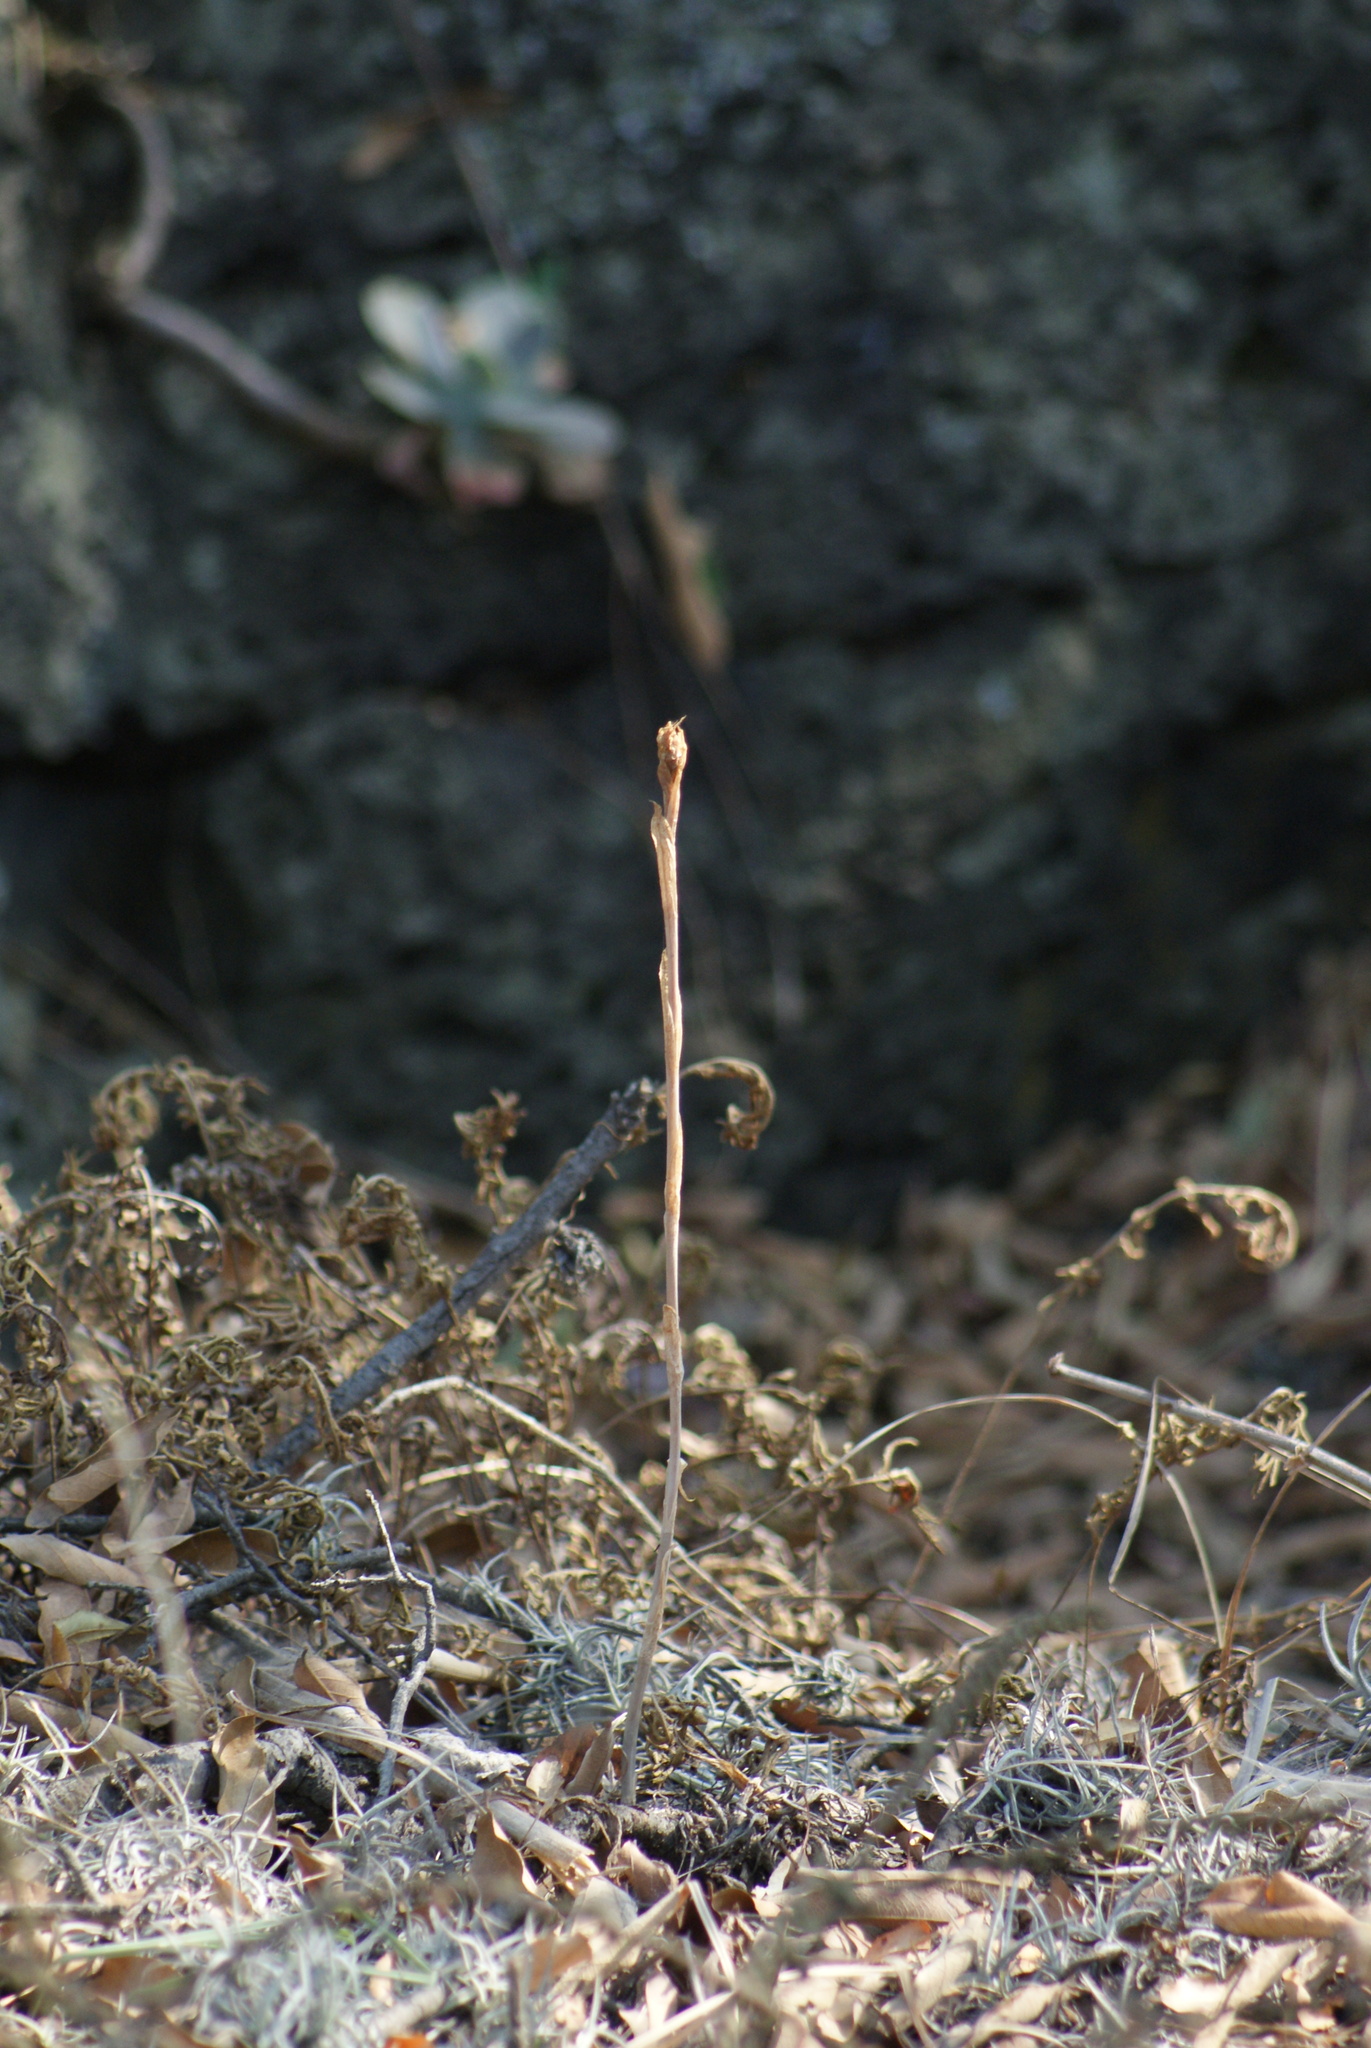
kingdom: Plantae
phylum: Tracheophyta
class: Liliopsida
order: Asparagales
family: Orchidaceae
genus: Aulosepalum
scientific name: Aulosepalum pyramidale
